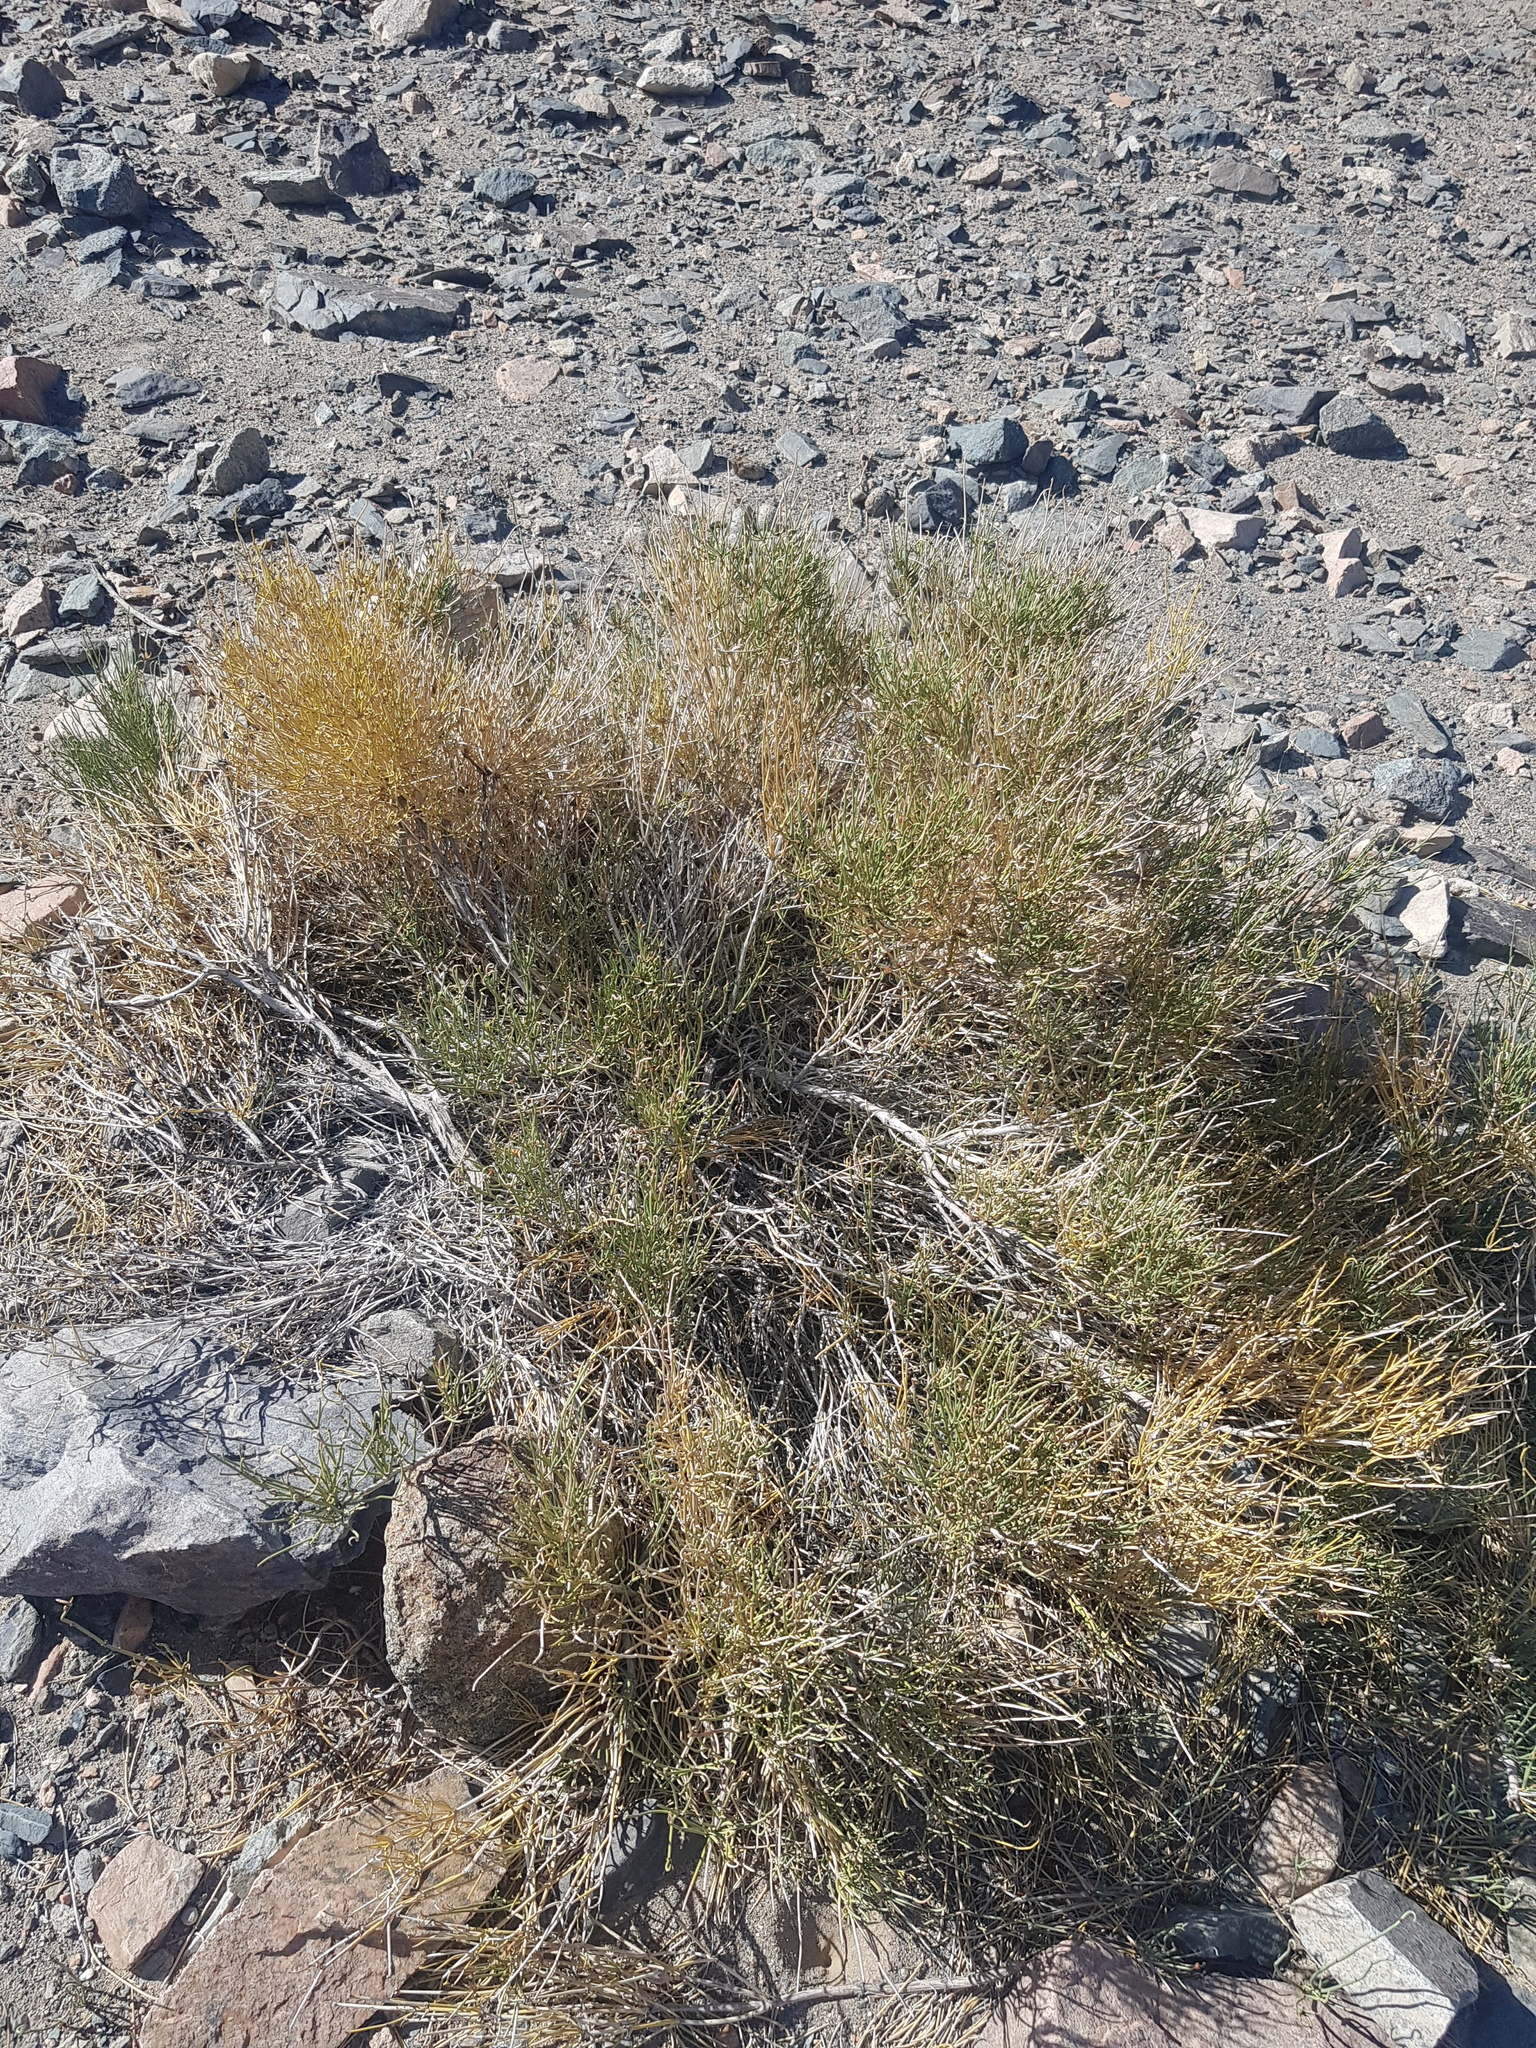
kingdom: Plantae
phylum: Tracheophyta
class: Gnetopsida
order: Ephedrales
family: Ephedraceae
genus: Ephedra
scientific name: Ephedra przewalskii
